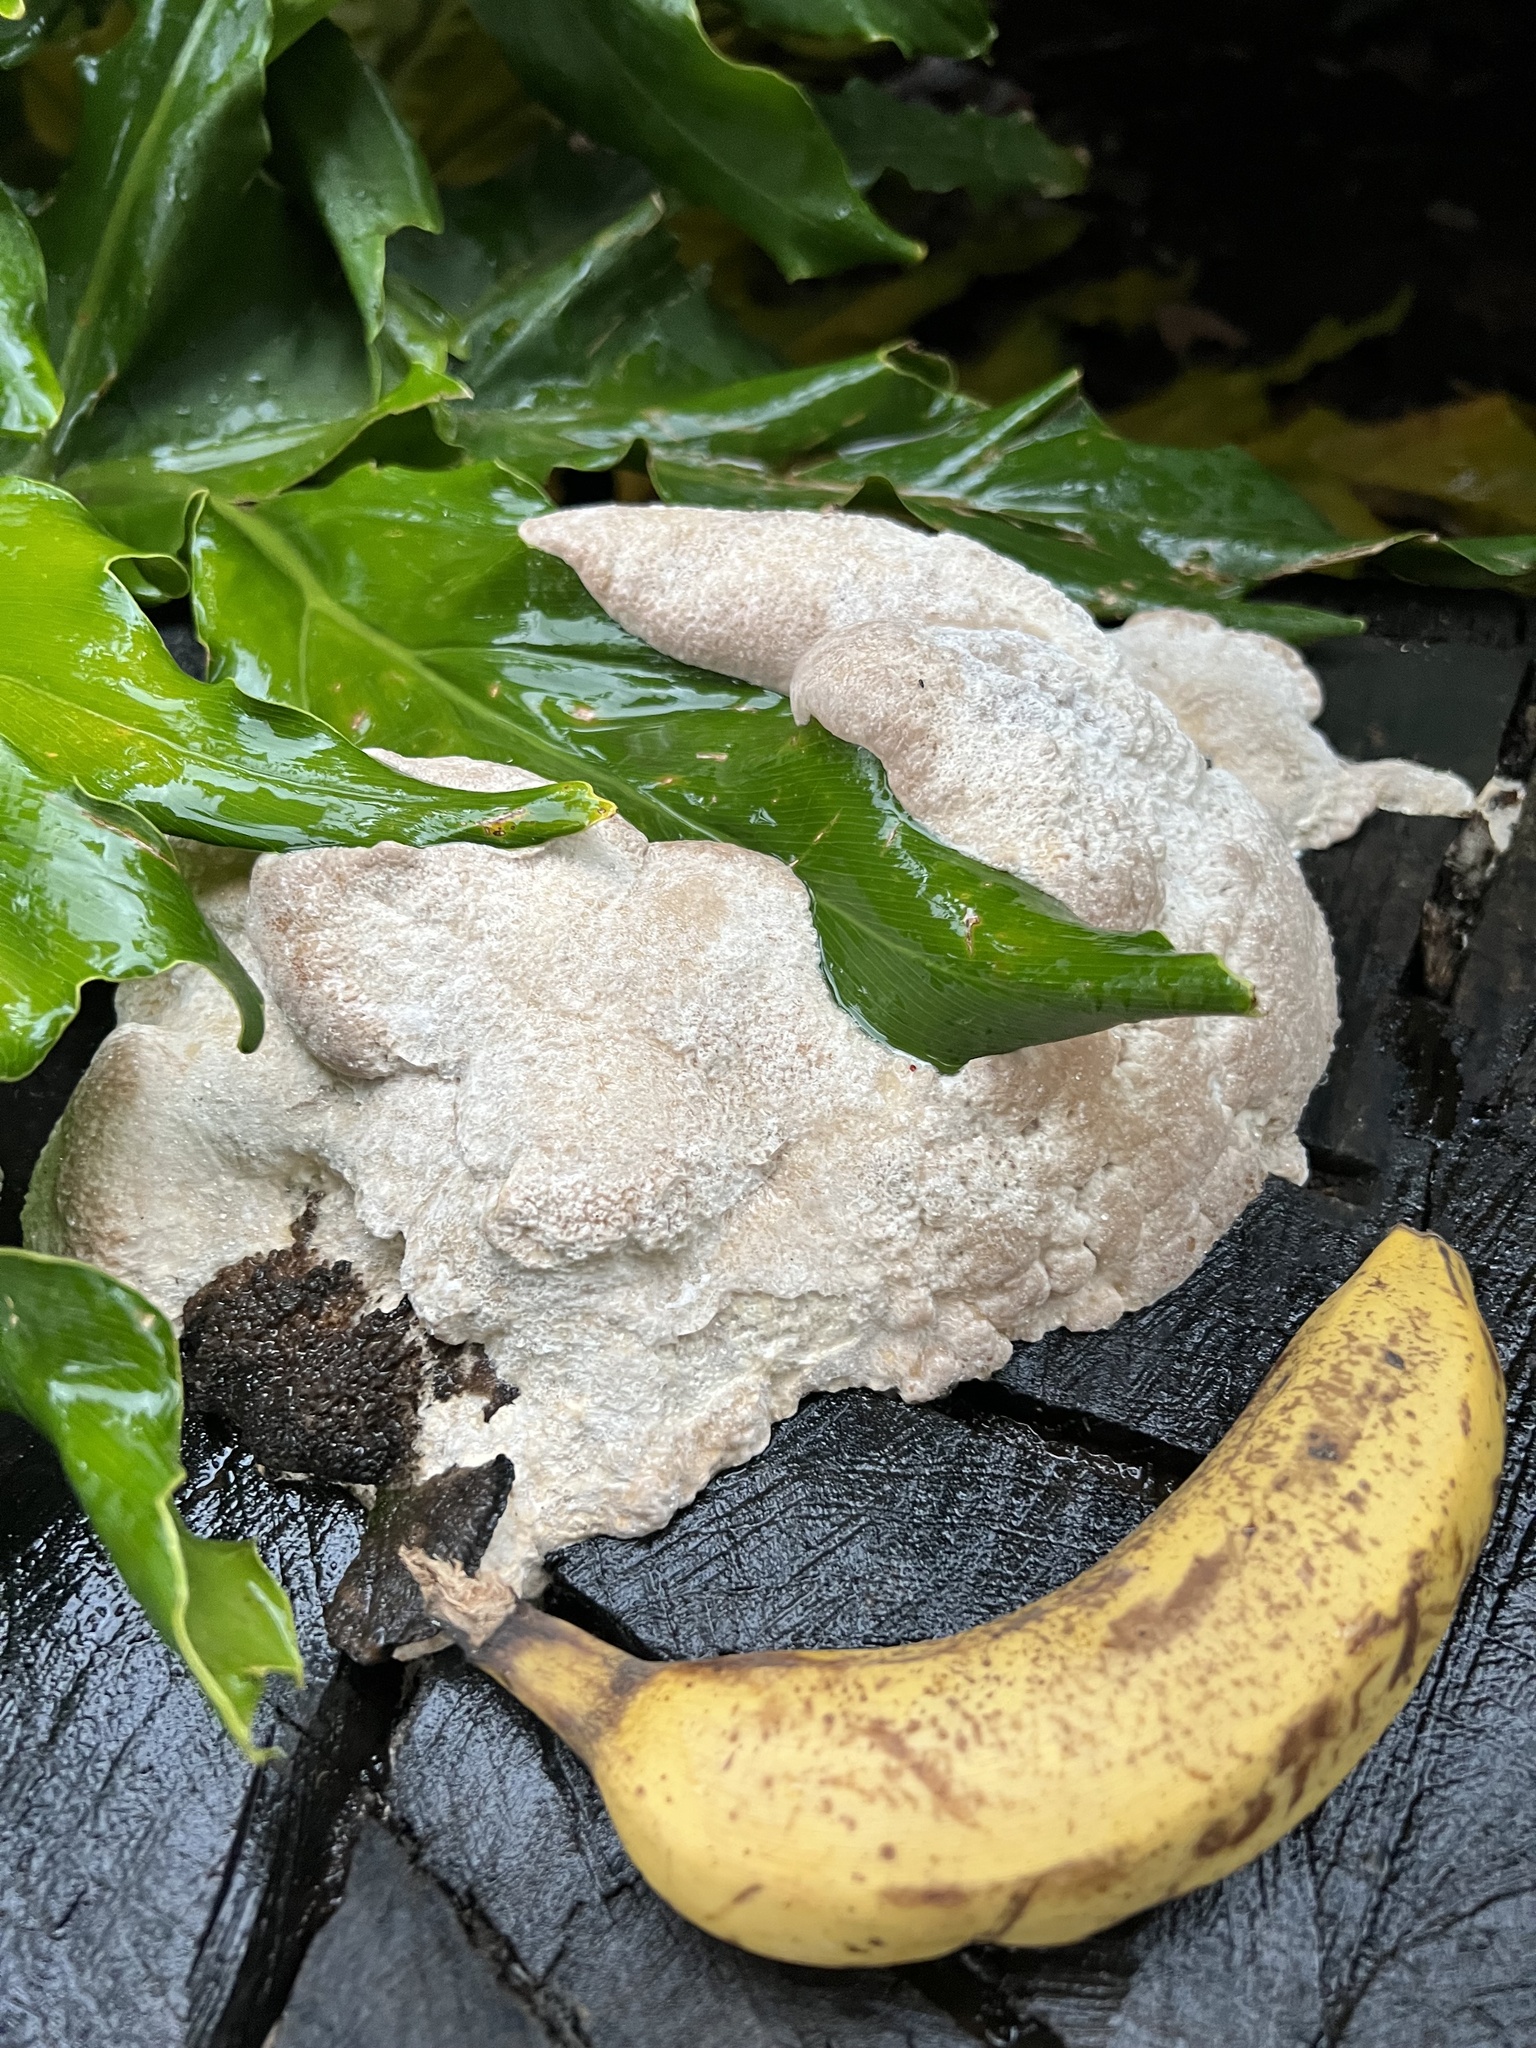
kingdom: Protozoa
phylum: Mycetozoa
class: Myxomycetes
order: Physarales
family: Physaraceae
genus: Fuligo
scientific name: Fuligo septica
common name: Dog vomit slime mold
